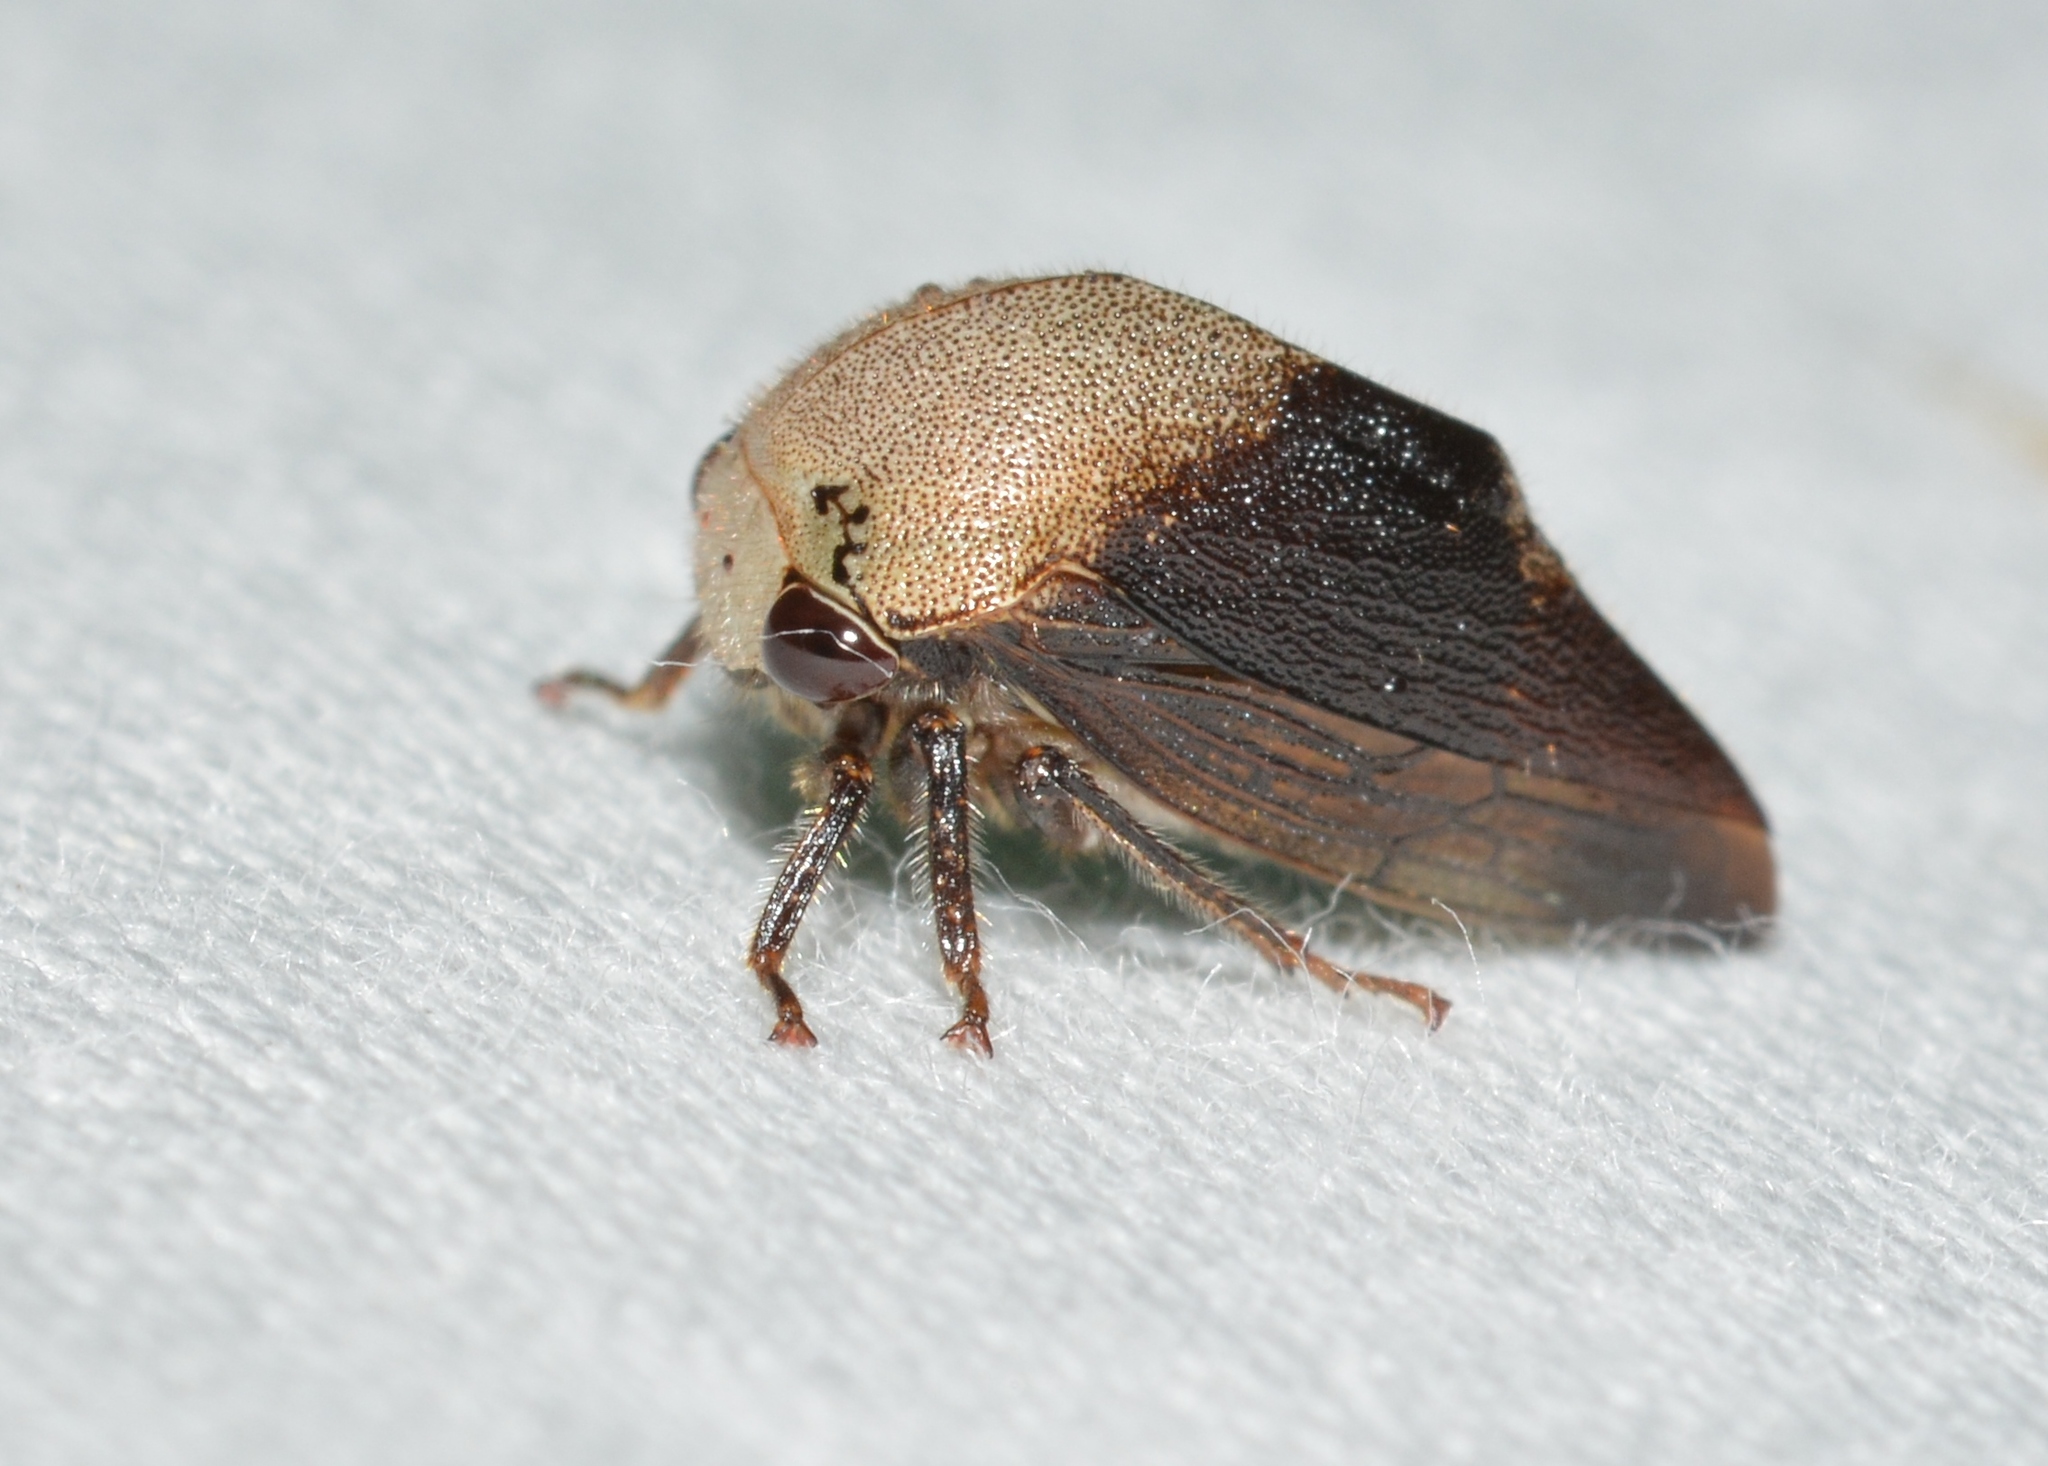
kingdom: Animalia
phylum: Arthropoda
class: Insecta
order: Hemiptera
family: Membracidae
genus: Carynota
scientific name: Carynota mera
